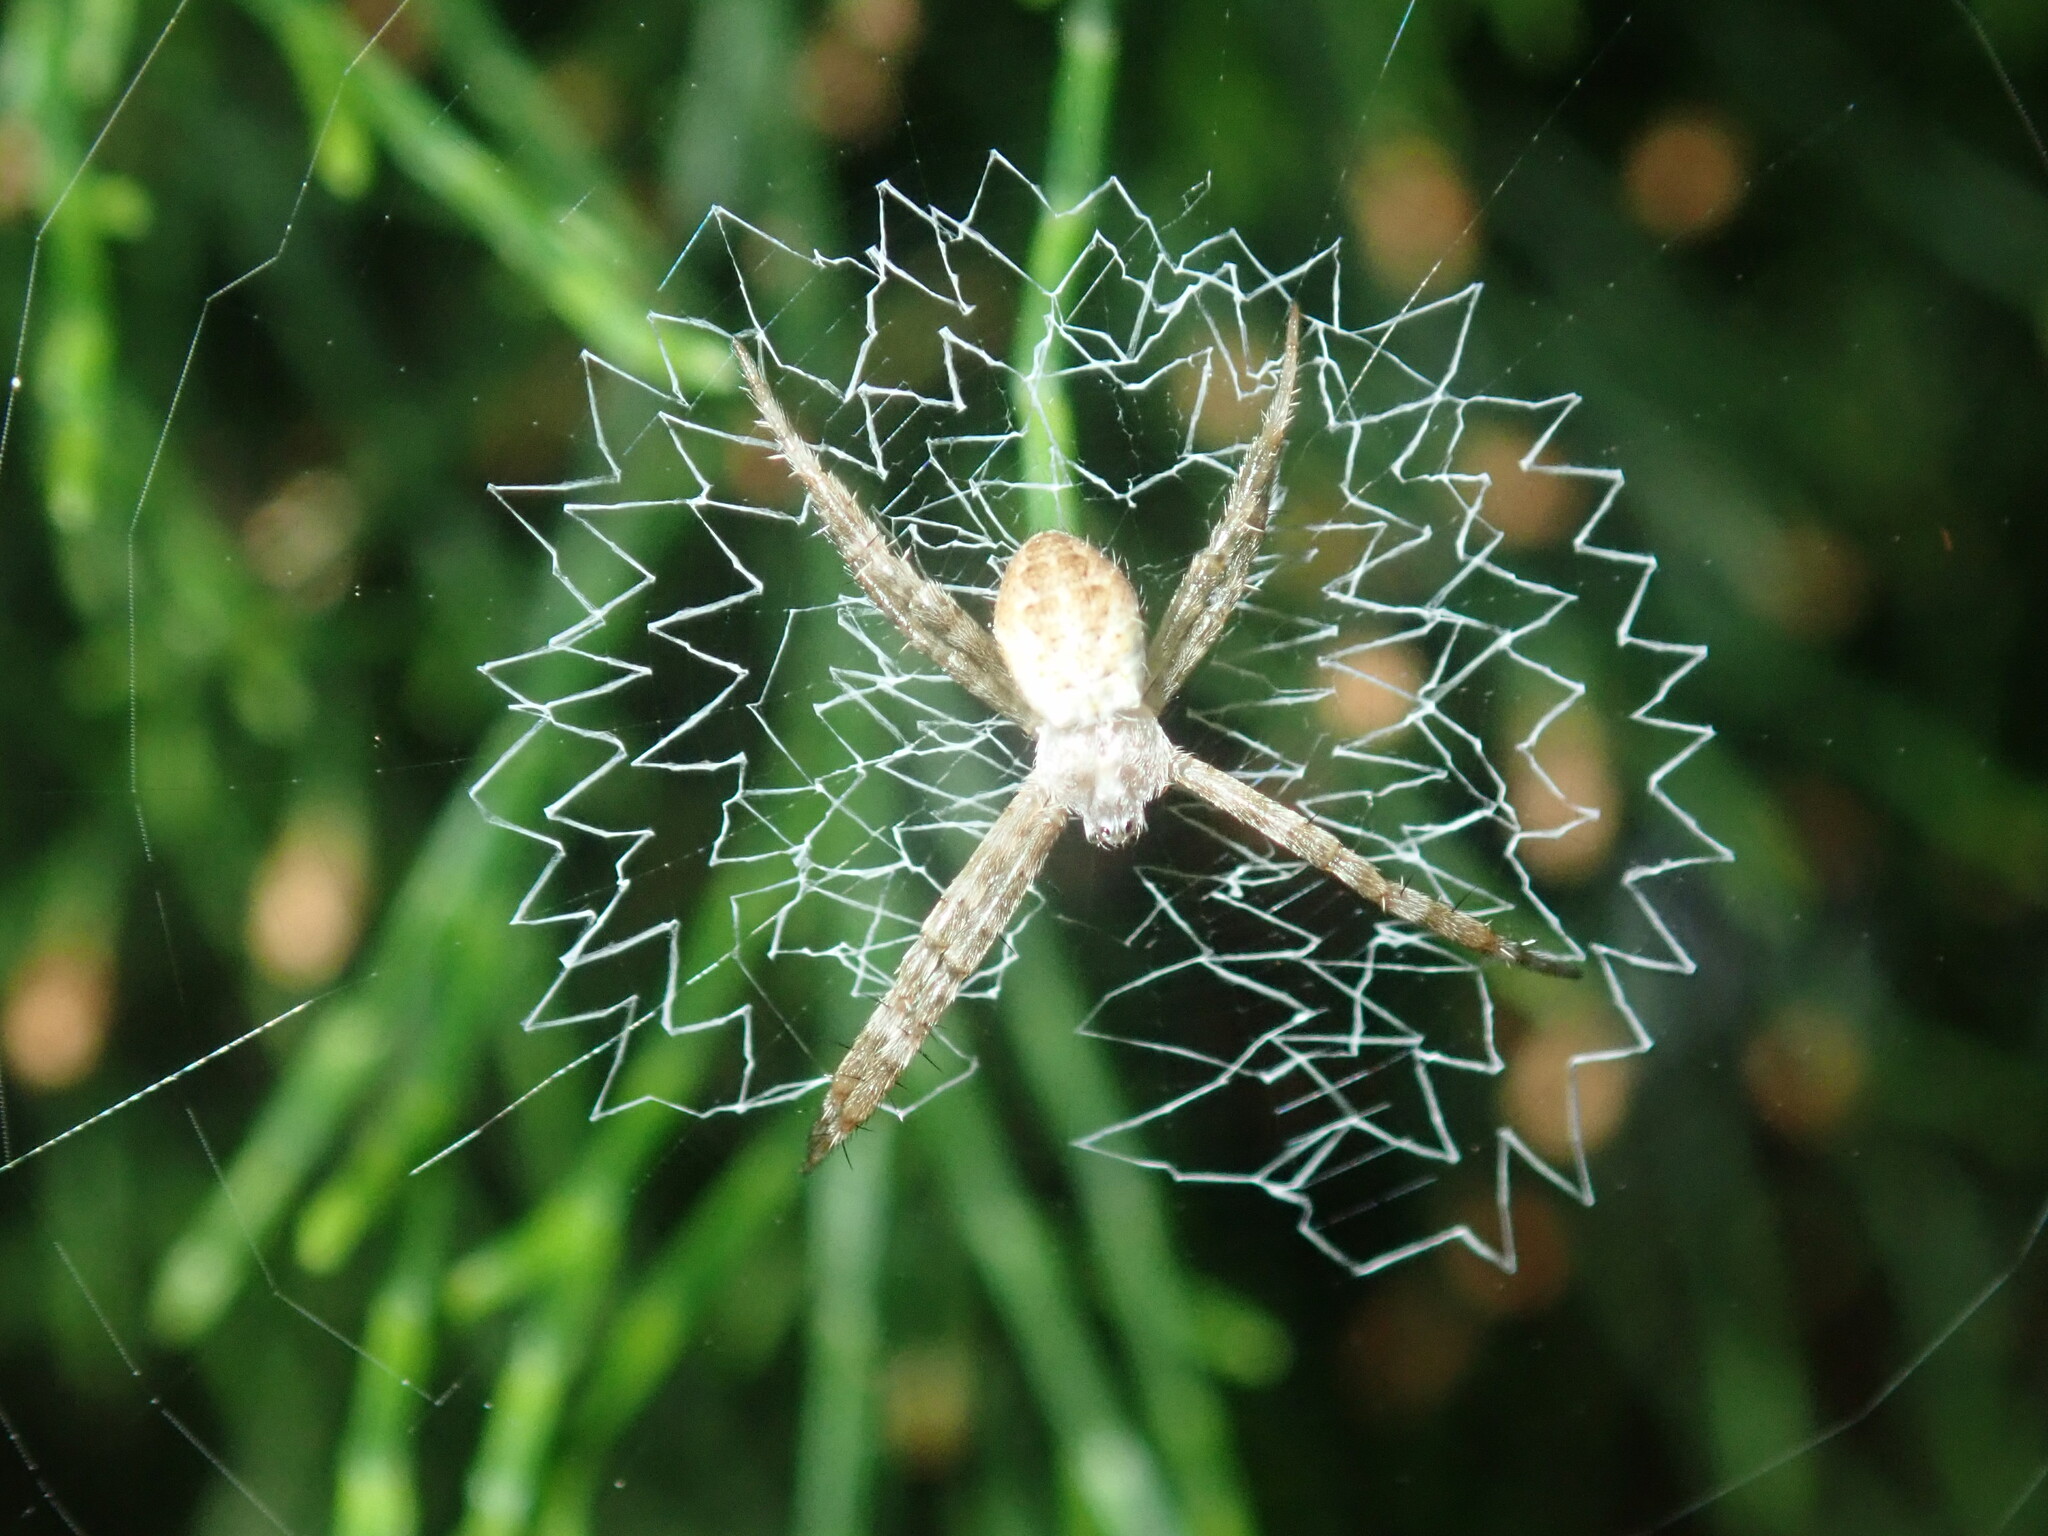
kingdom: Animalia
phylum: Arthropoda
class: Arachnida
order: Araneae
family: Araneidae
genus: Argiope
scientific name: Argiope keyserlingi
